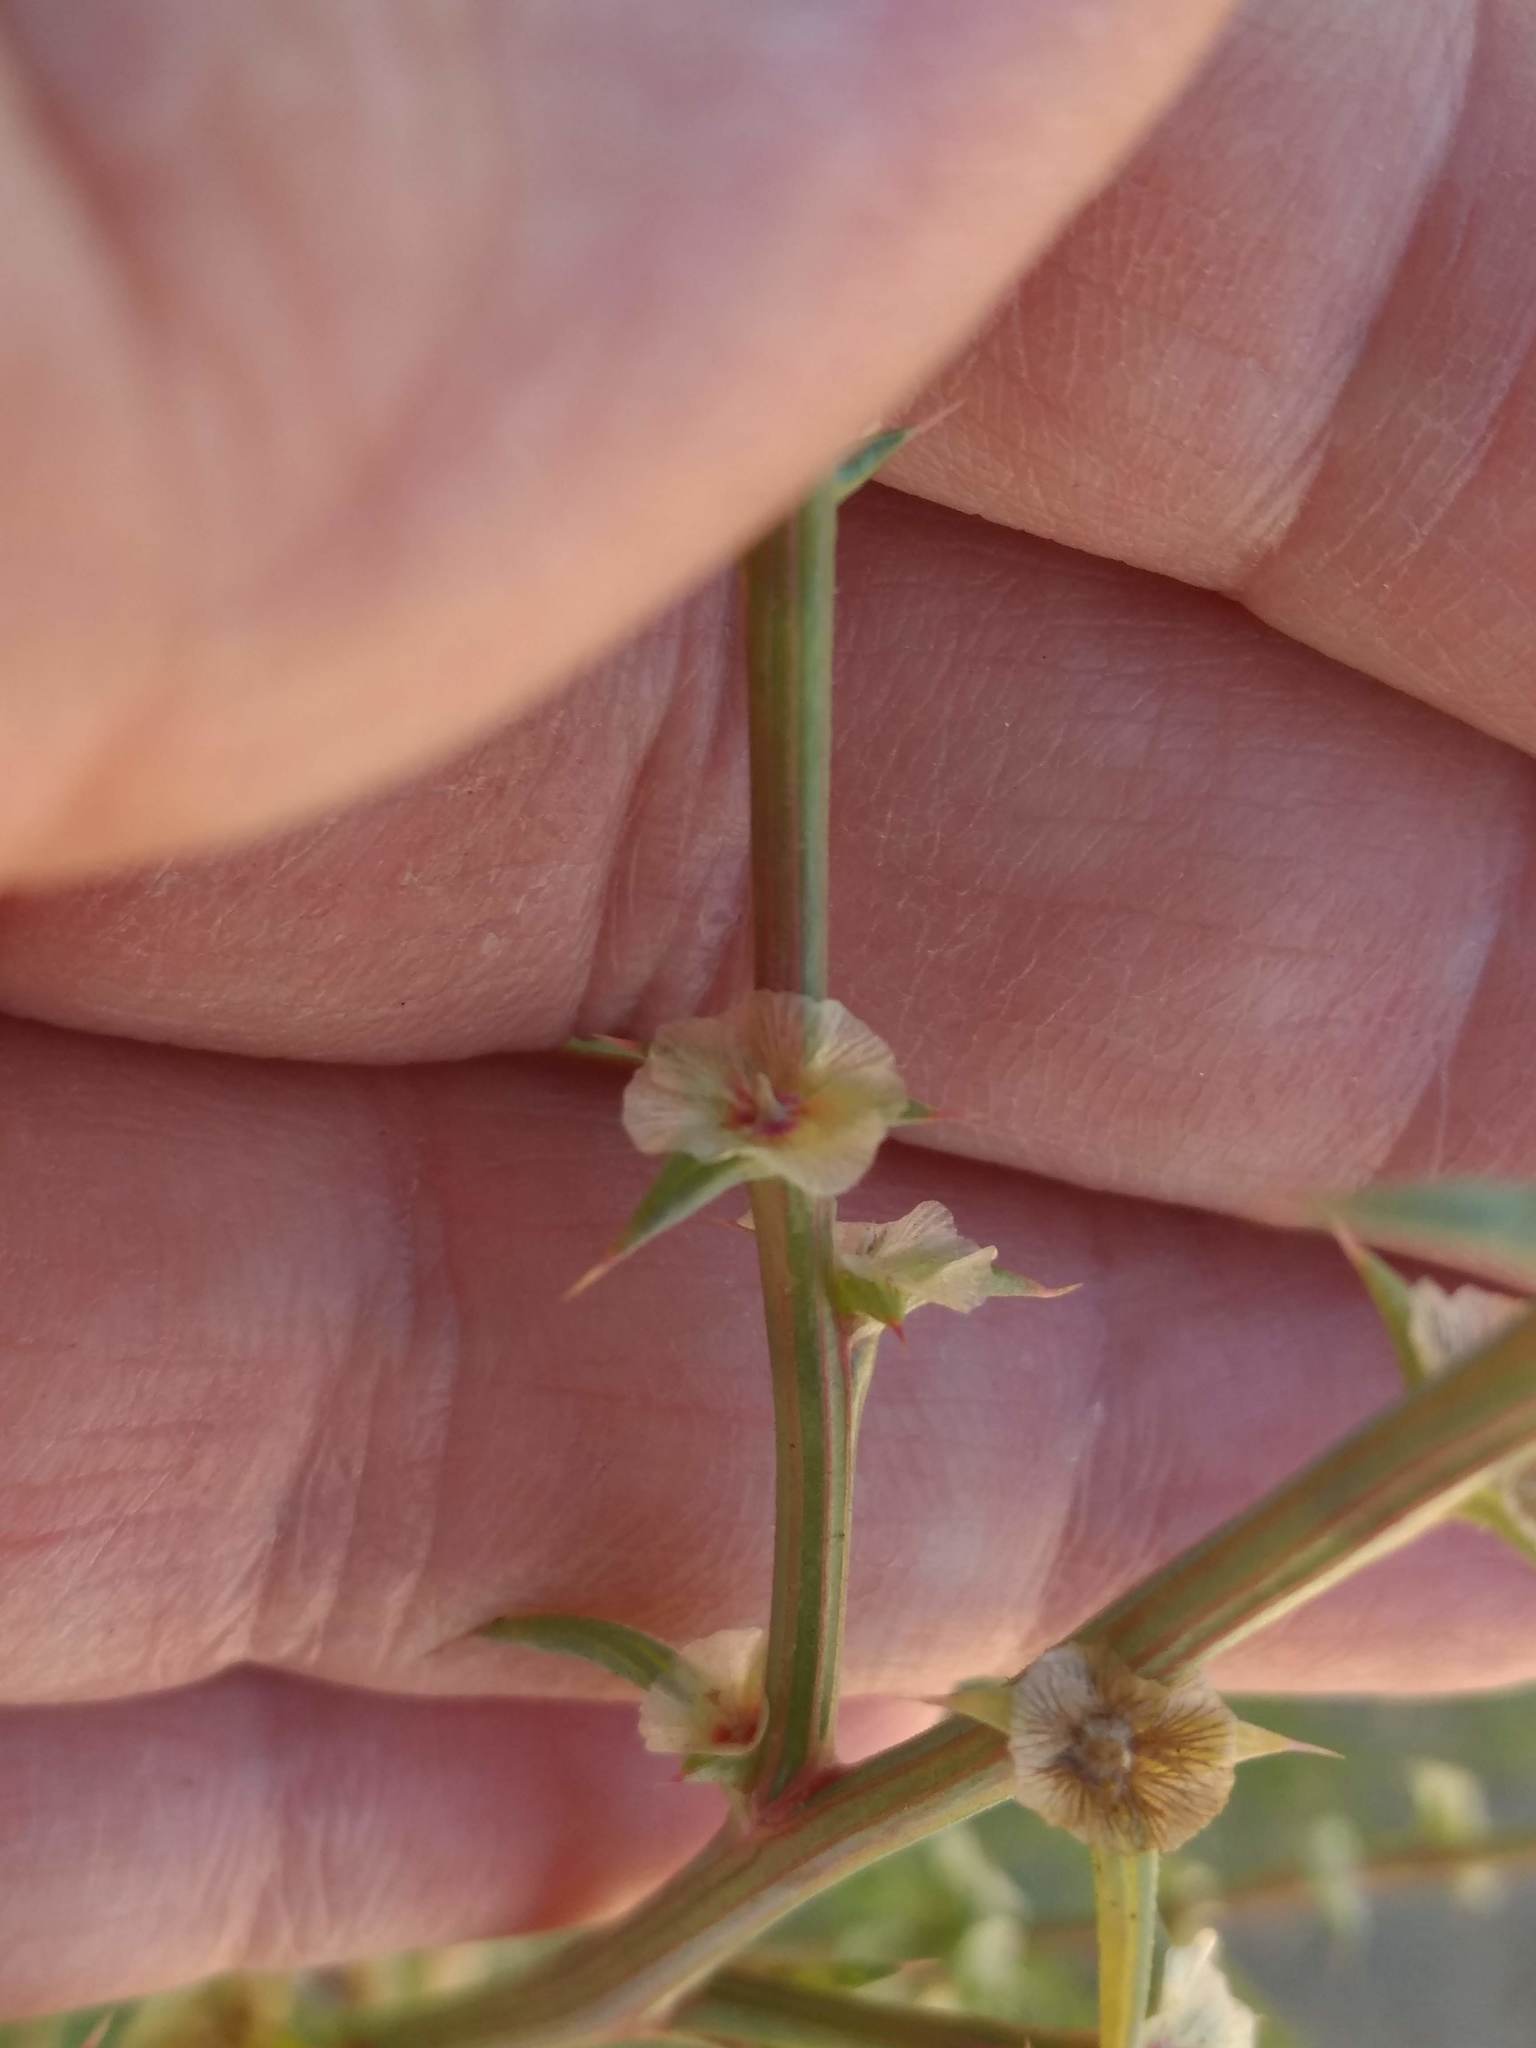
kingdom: Plantae
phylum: Tracheophyta
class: Magnoliopsida
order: Caryophyllales
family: Amaranthaceae
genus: Salsola
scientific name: Salsola australis
